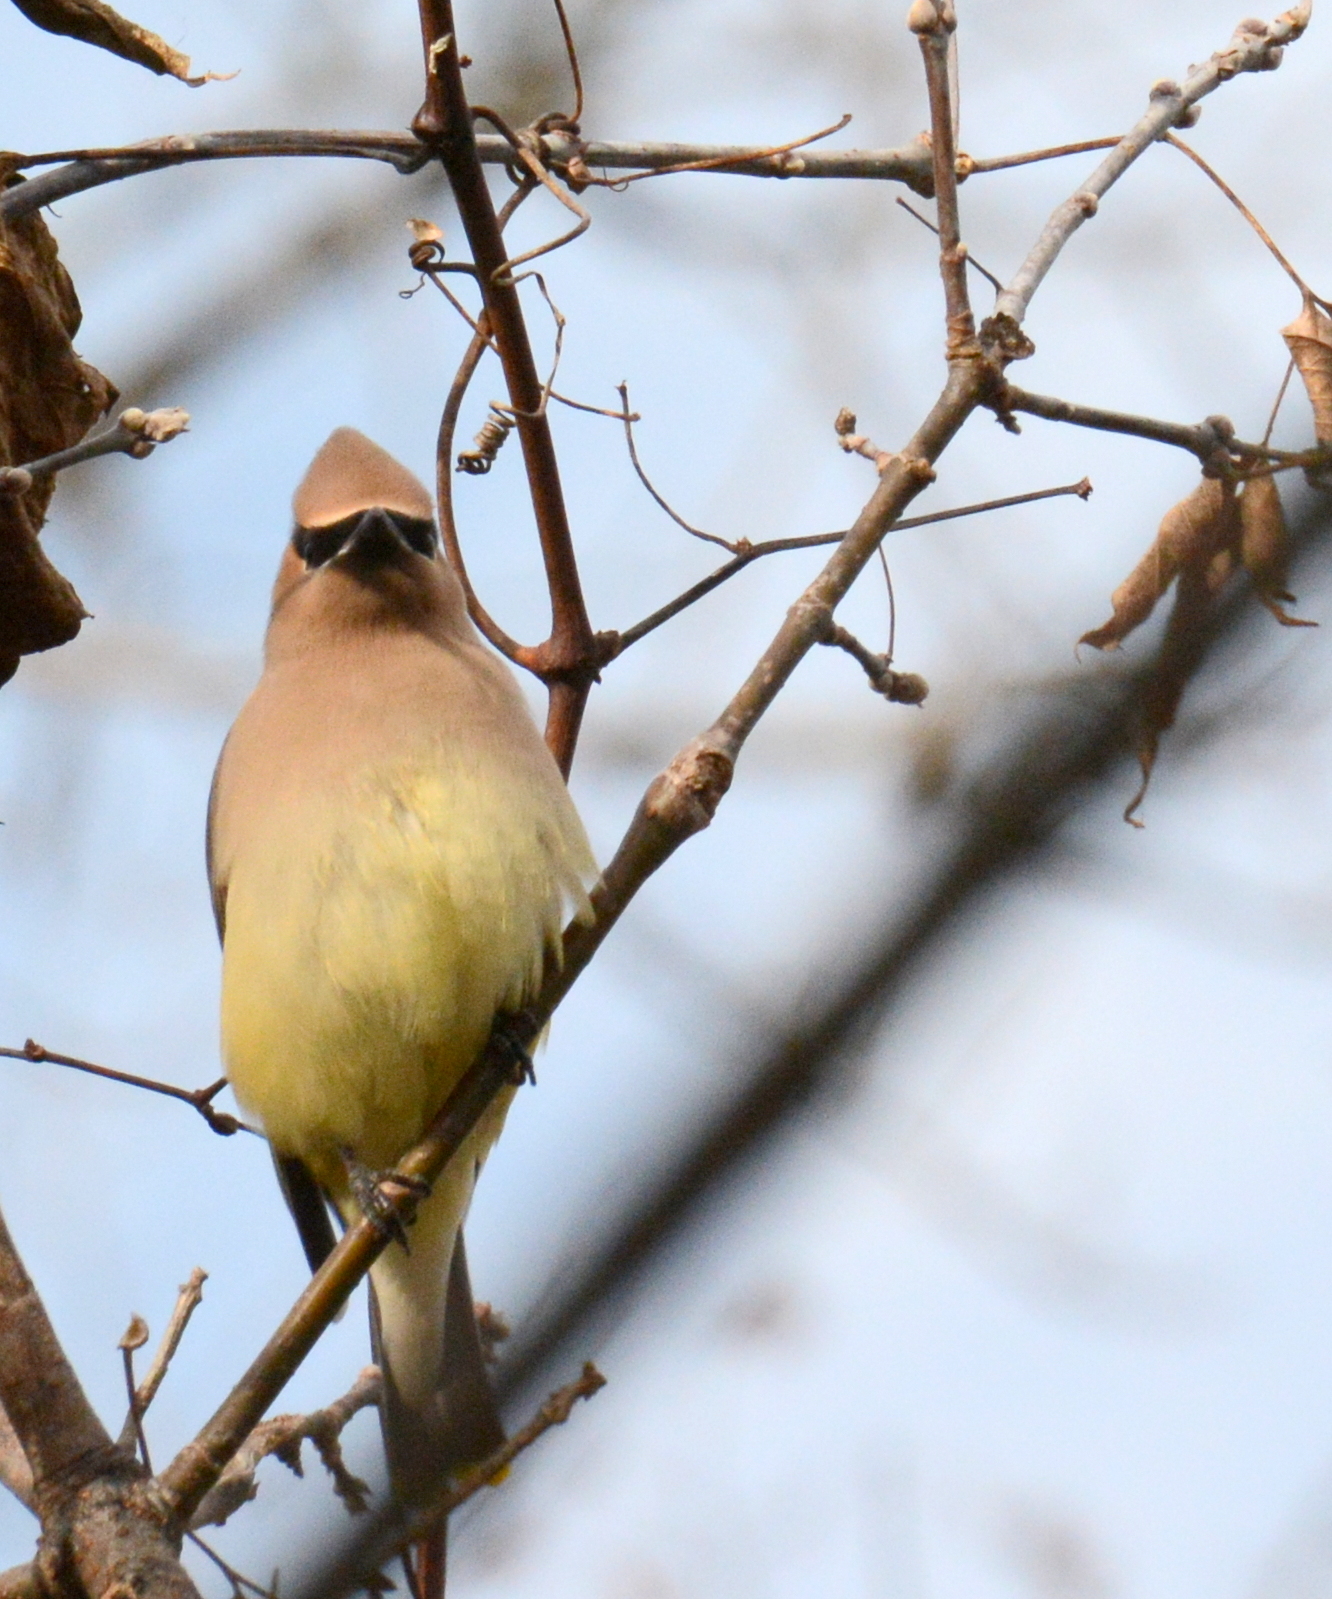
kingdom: Animalia
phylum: Chordata
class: Aves
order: Passeriformes
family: Bombycillidae
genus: Bombycilla
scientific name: Bombycilla cedrorum
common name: Cedar waxwing
